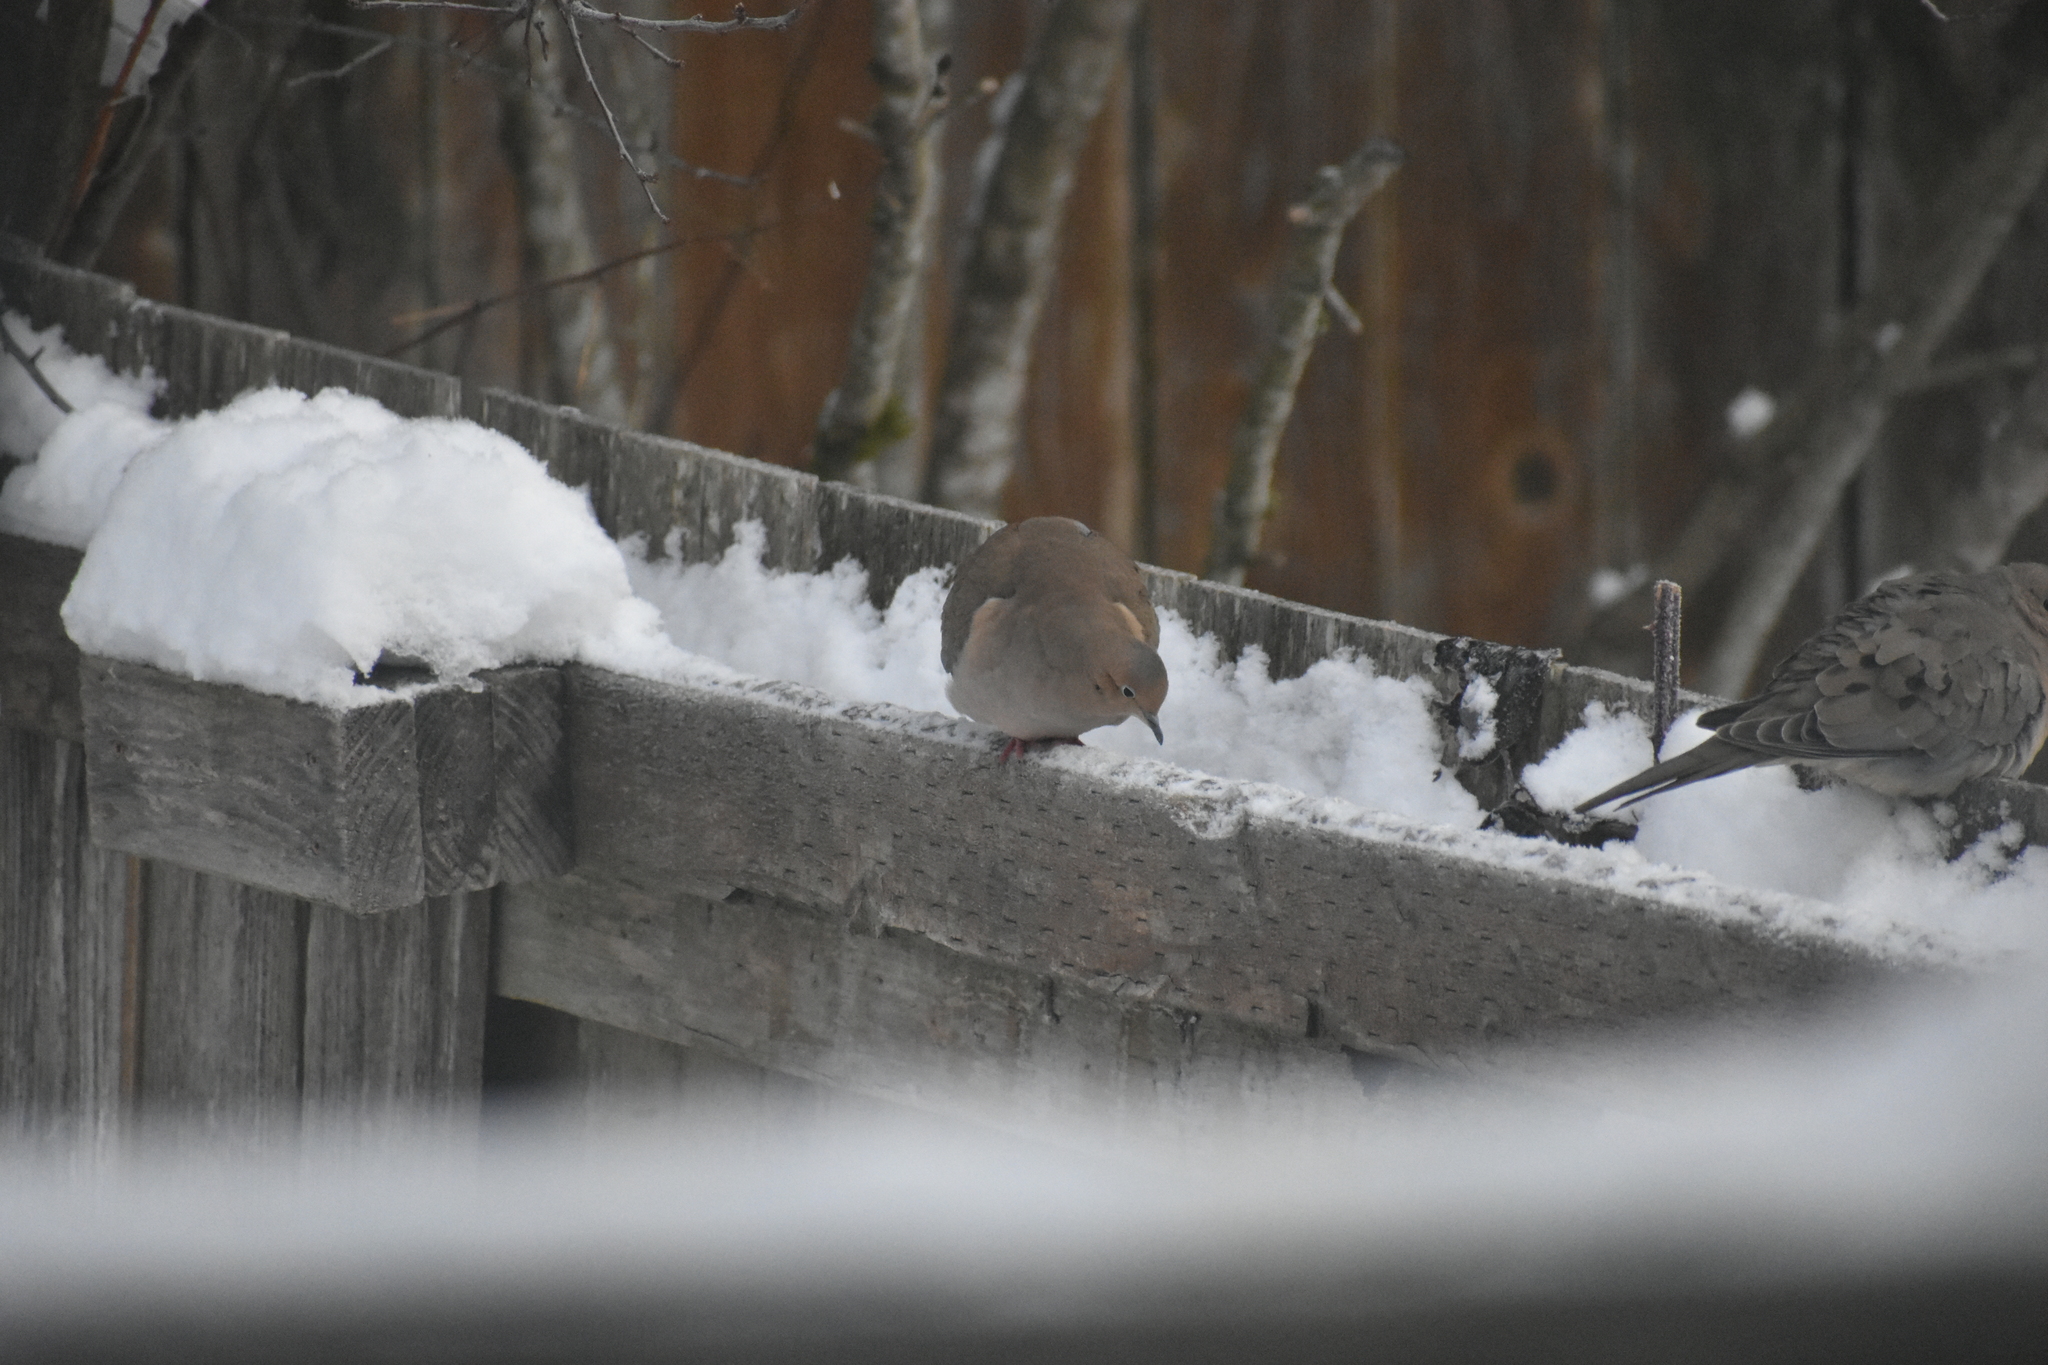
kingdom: Animalia
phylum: Chordata
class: Aves
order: Columbiformes
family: Columbidae
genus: Zenaida
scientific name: Zenaida macroura
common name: Mourning dove
